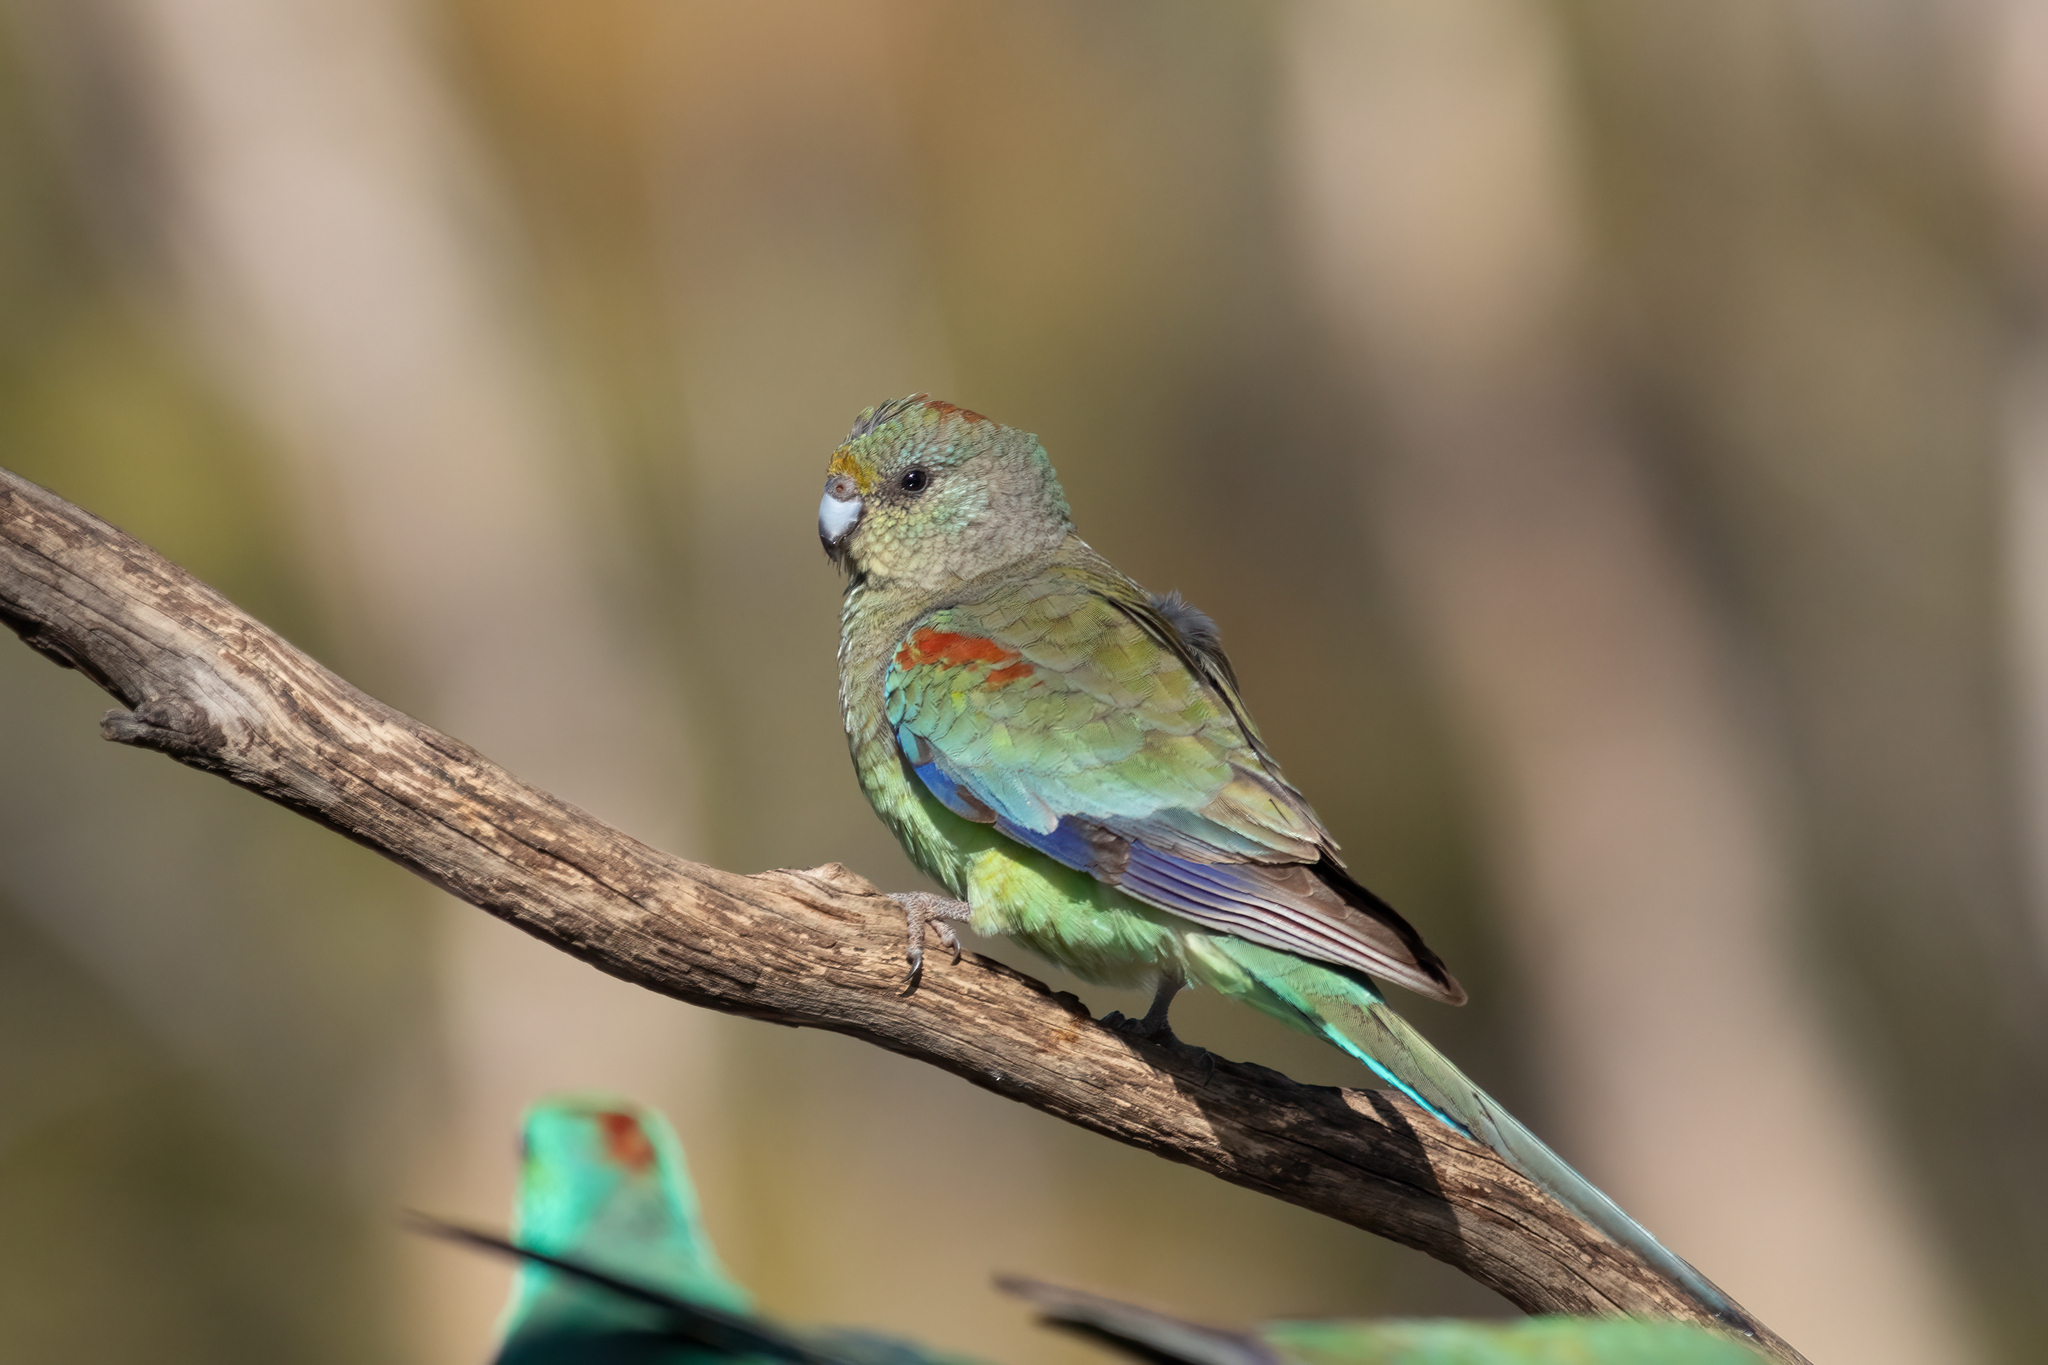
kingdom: Animalia
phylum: Chordata
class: Aves
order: Psittaciformes
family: Psittaculidae
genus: Psephotellus
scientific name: Psephotellus varius
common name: Mulga parrot
